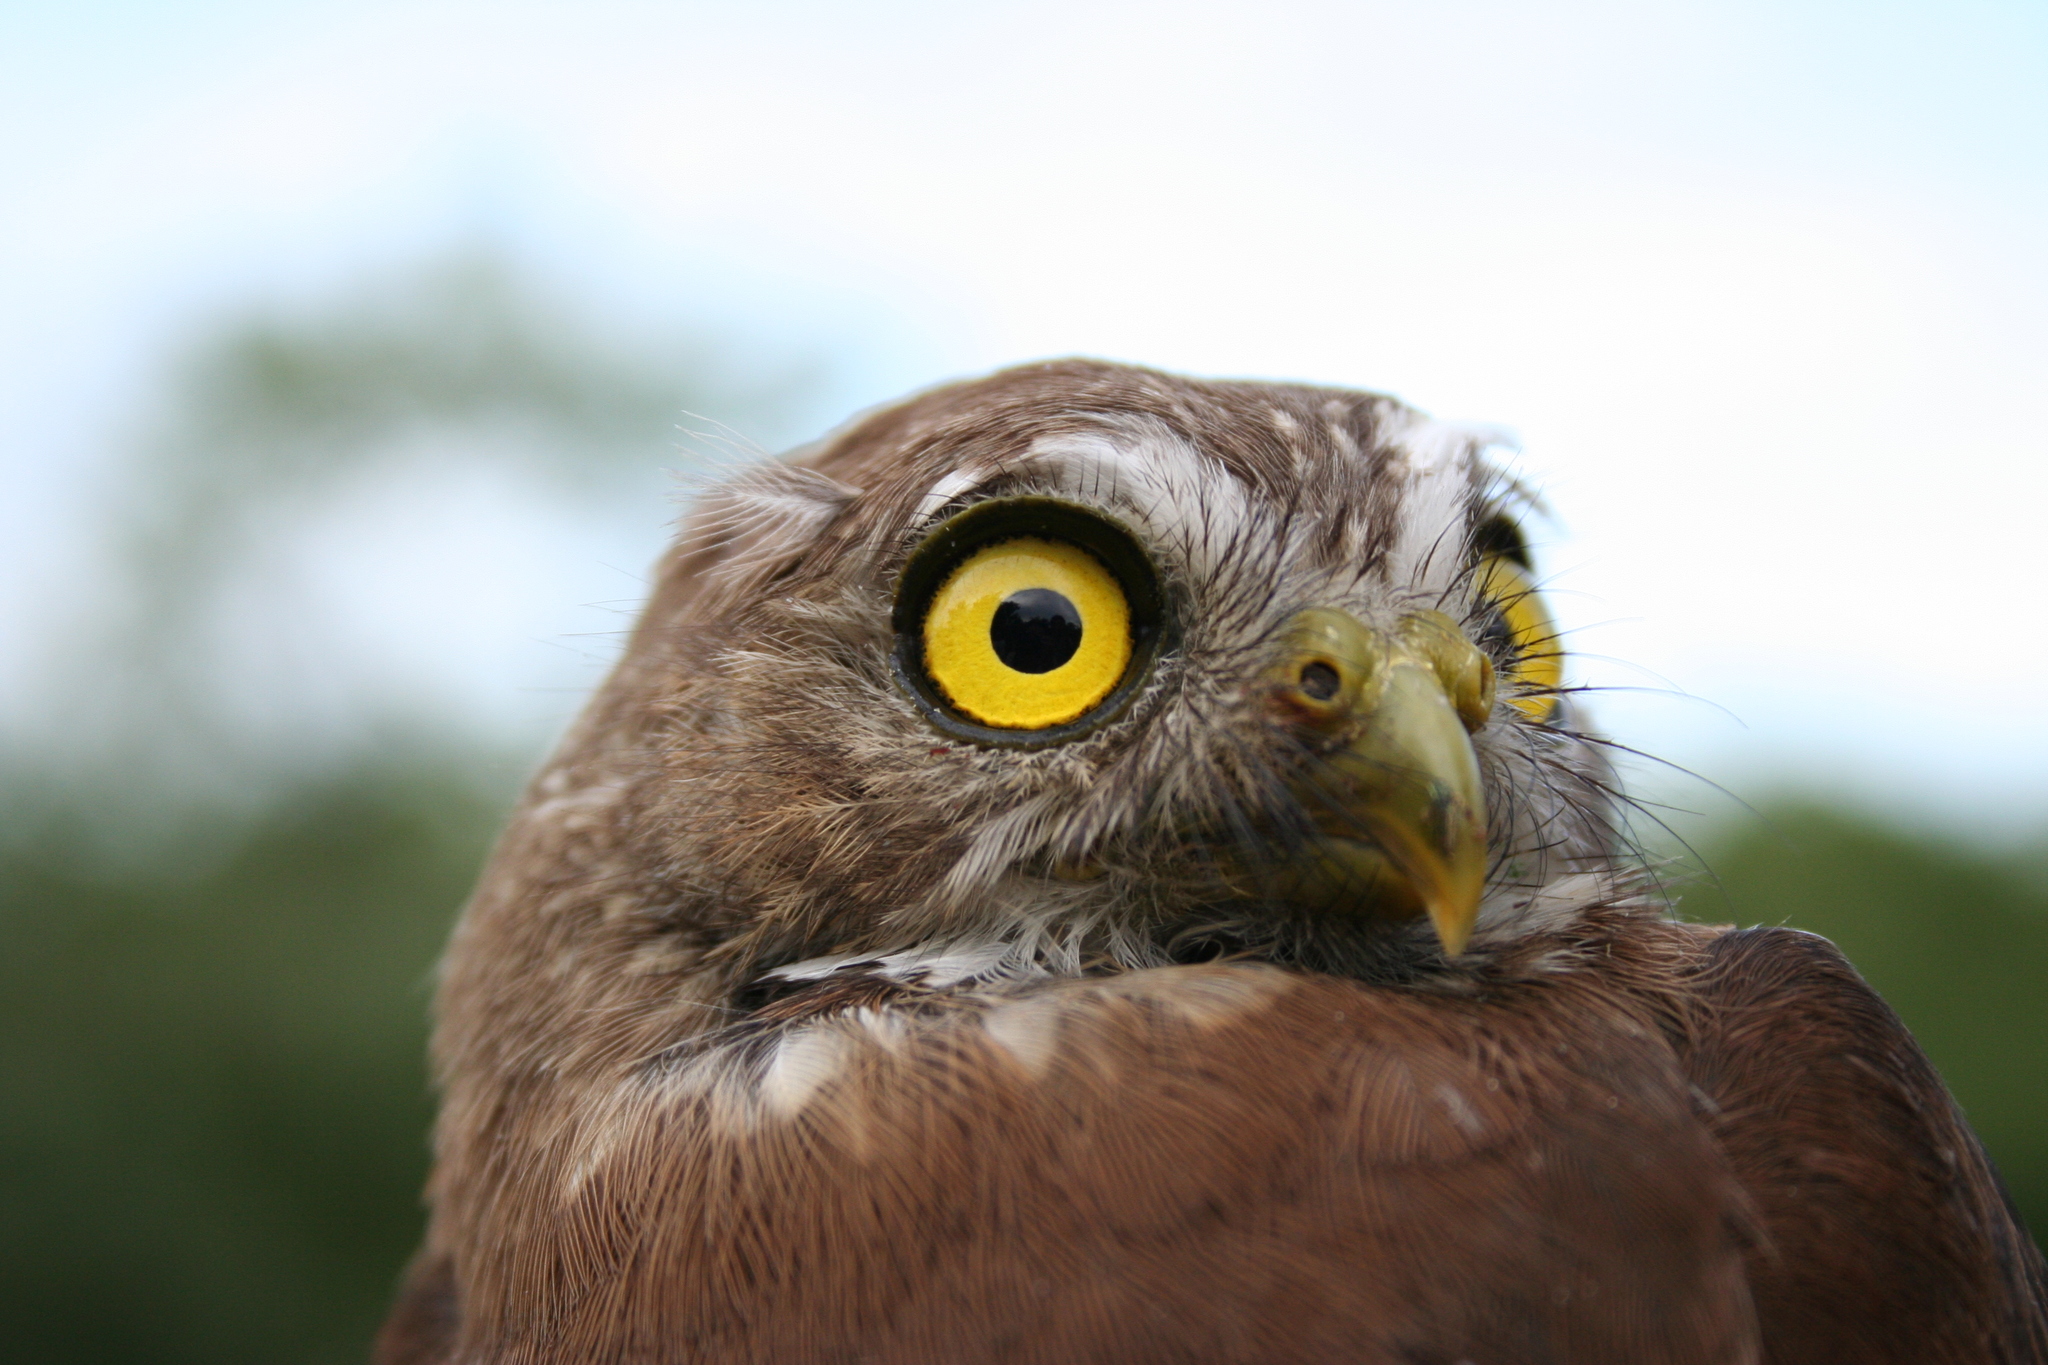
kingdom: Animalia
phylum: Chordata
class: Aves
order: Strigiformes
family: Strigidae
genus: Glaucidium
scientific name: Glaucidium brasilianum
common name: Ferruginous pygmy-owl
